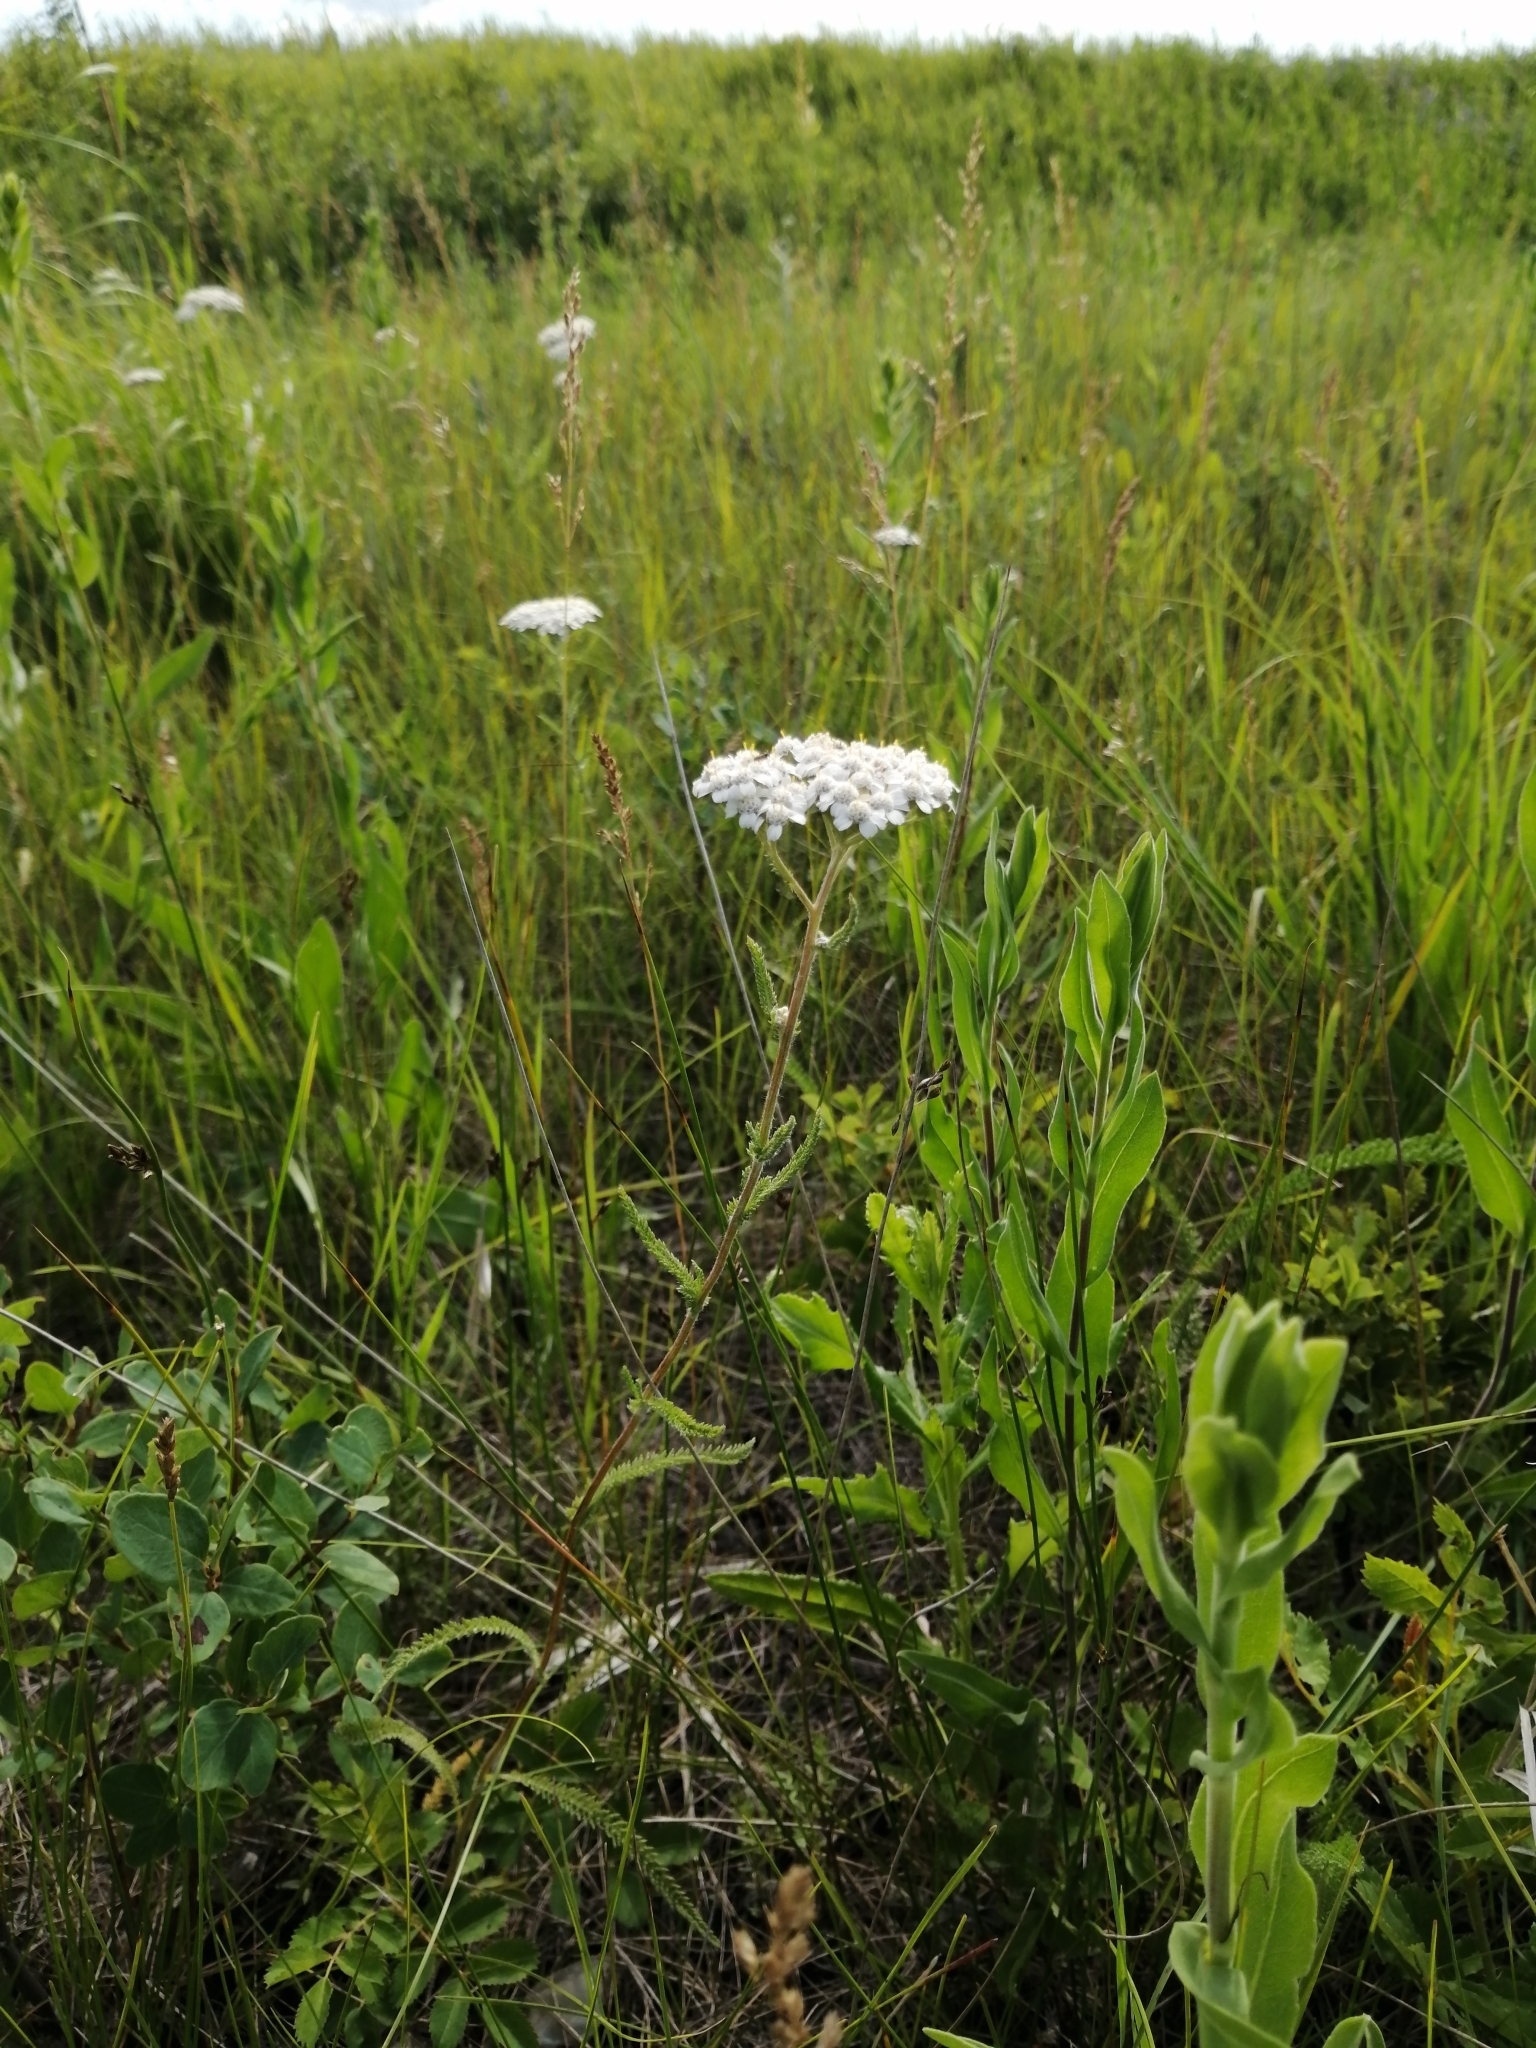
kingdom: Plantae
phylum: Tracheophyta
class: Magnoliopsida
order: Asterales
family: Asteraceae
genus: Achillea
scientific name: Achillea millefolium
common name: Yarrow
